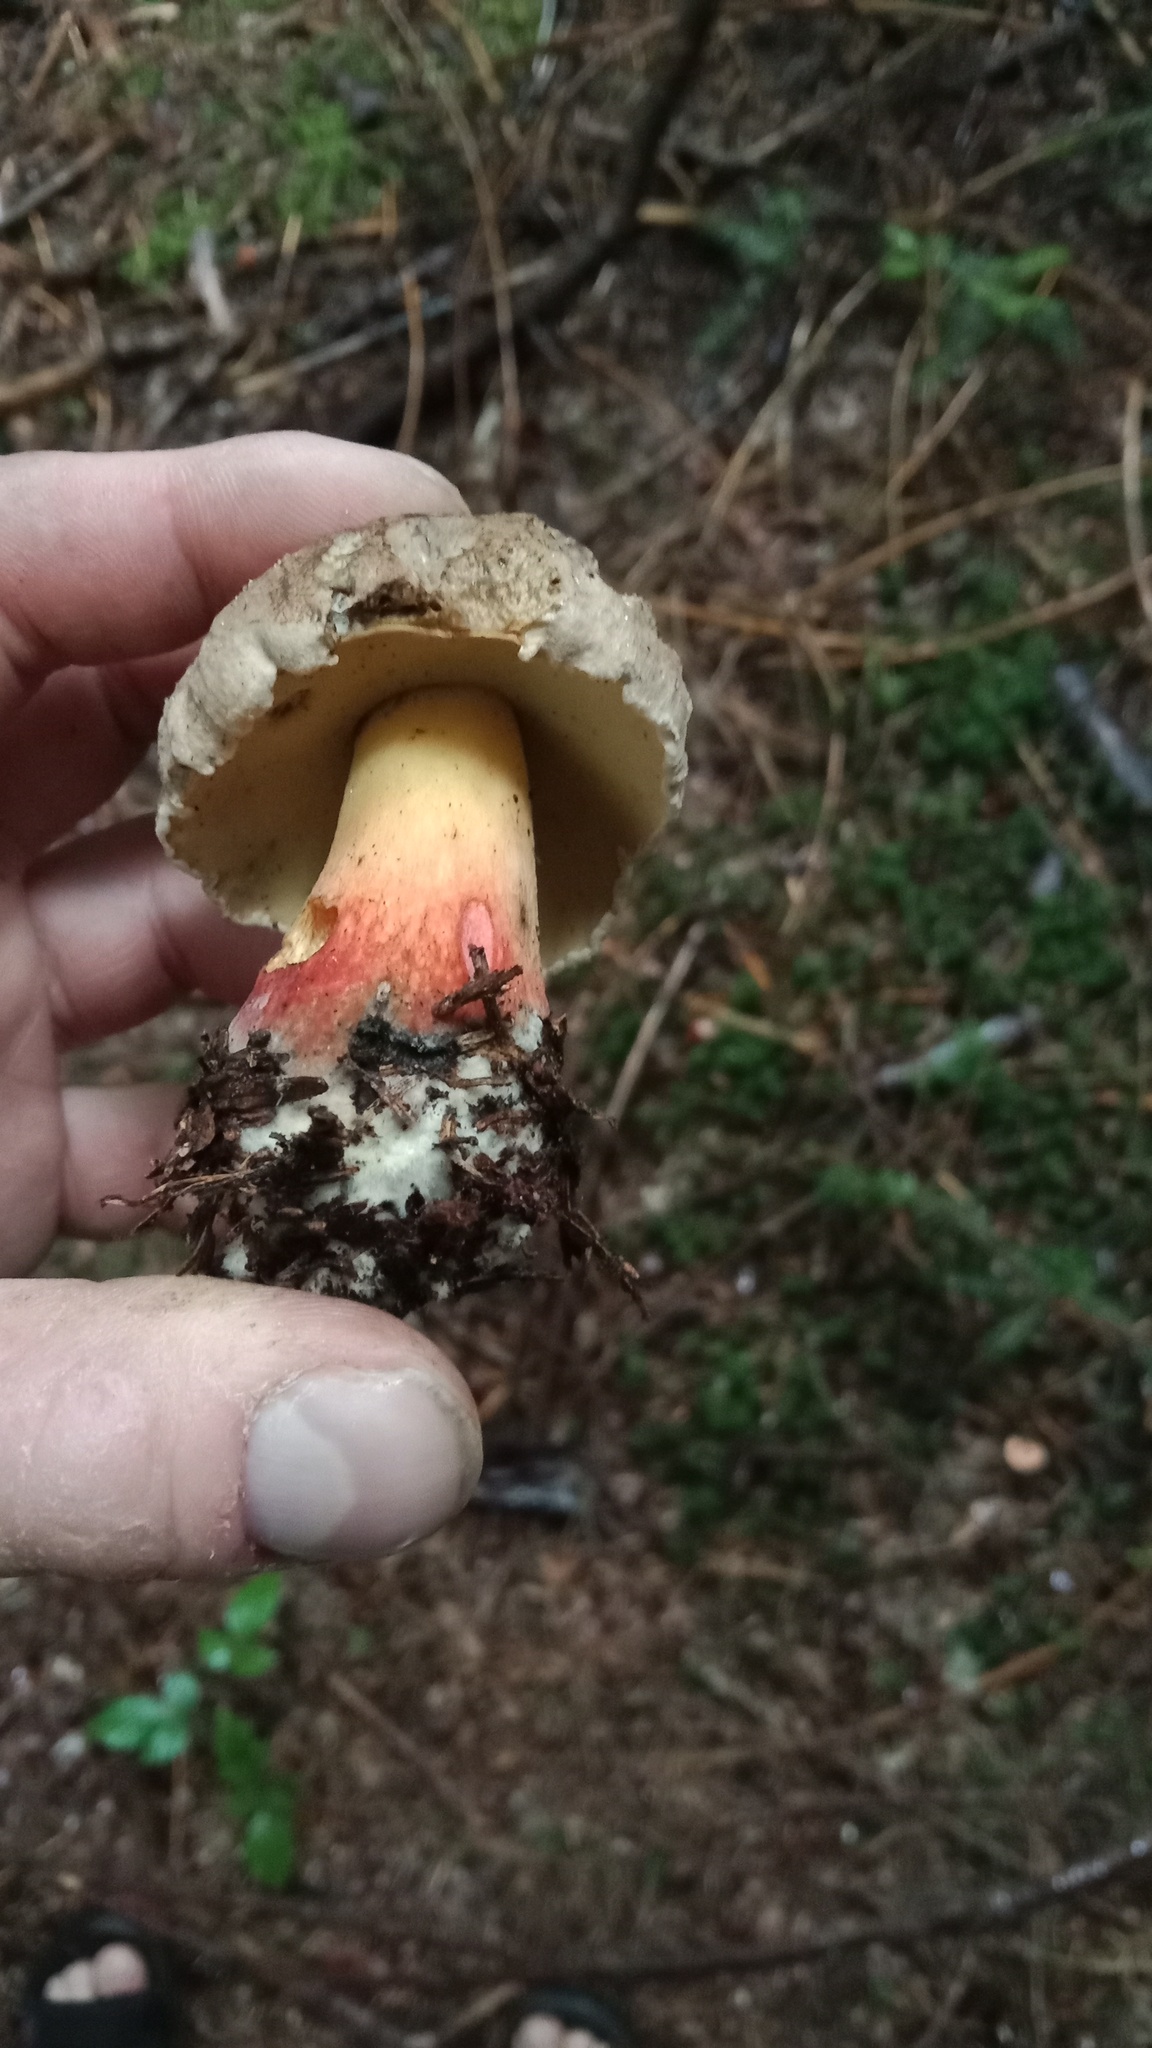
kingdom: Fungi
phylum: Basidiomycota
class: Agaricomycetes
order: Boletales
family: Boletaceae
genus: Caloboletus
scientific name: Caloboletus calopus
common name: Bitter beech bolete
